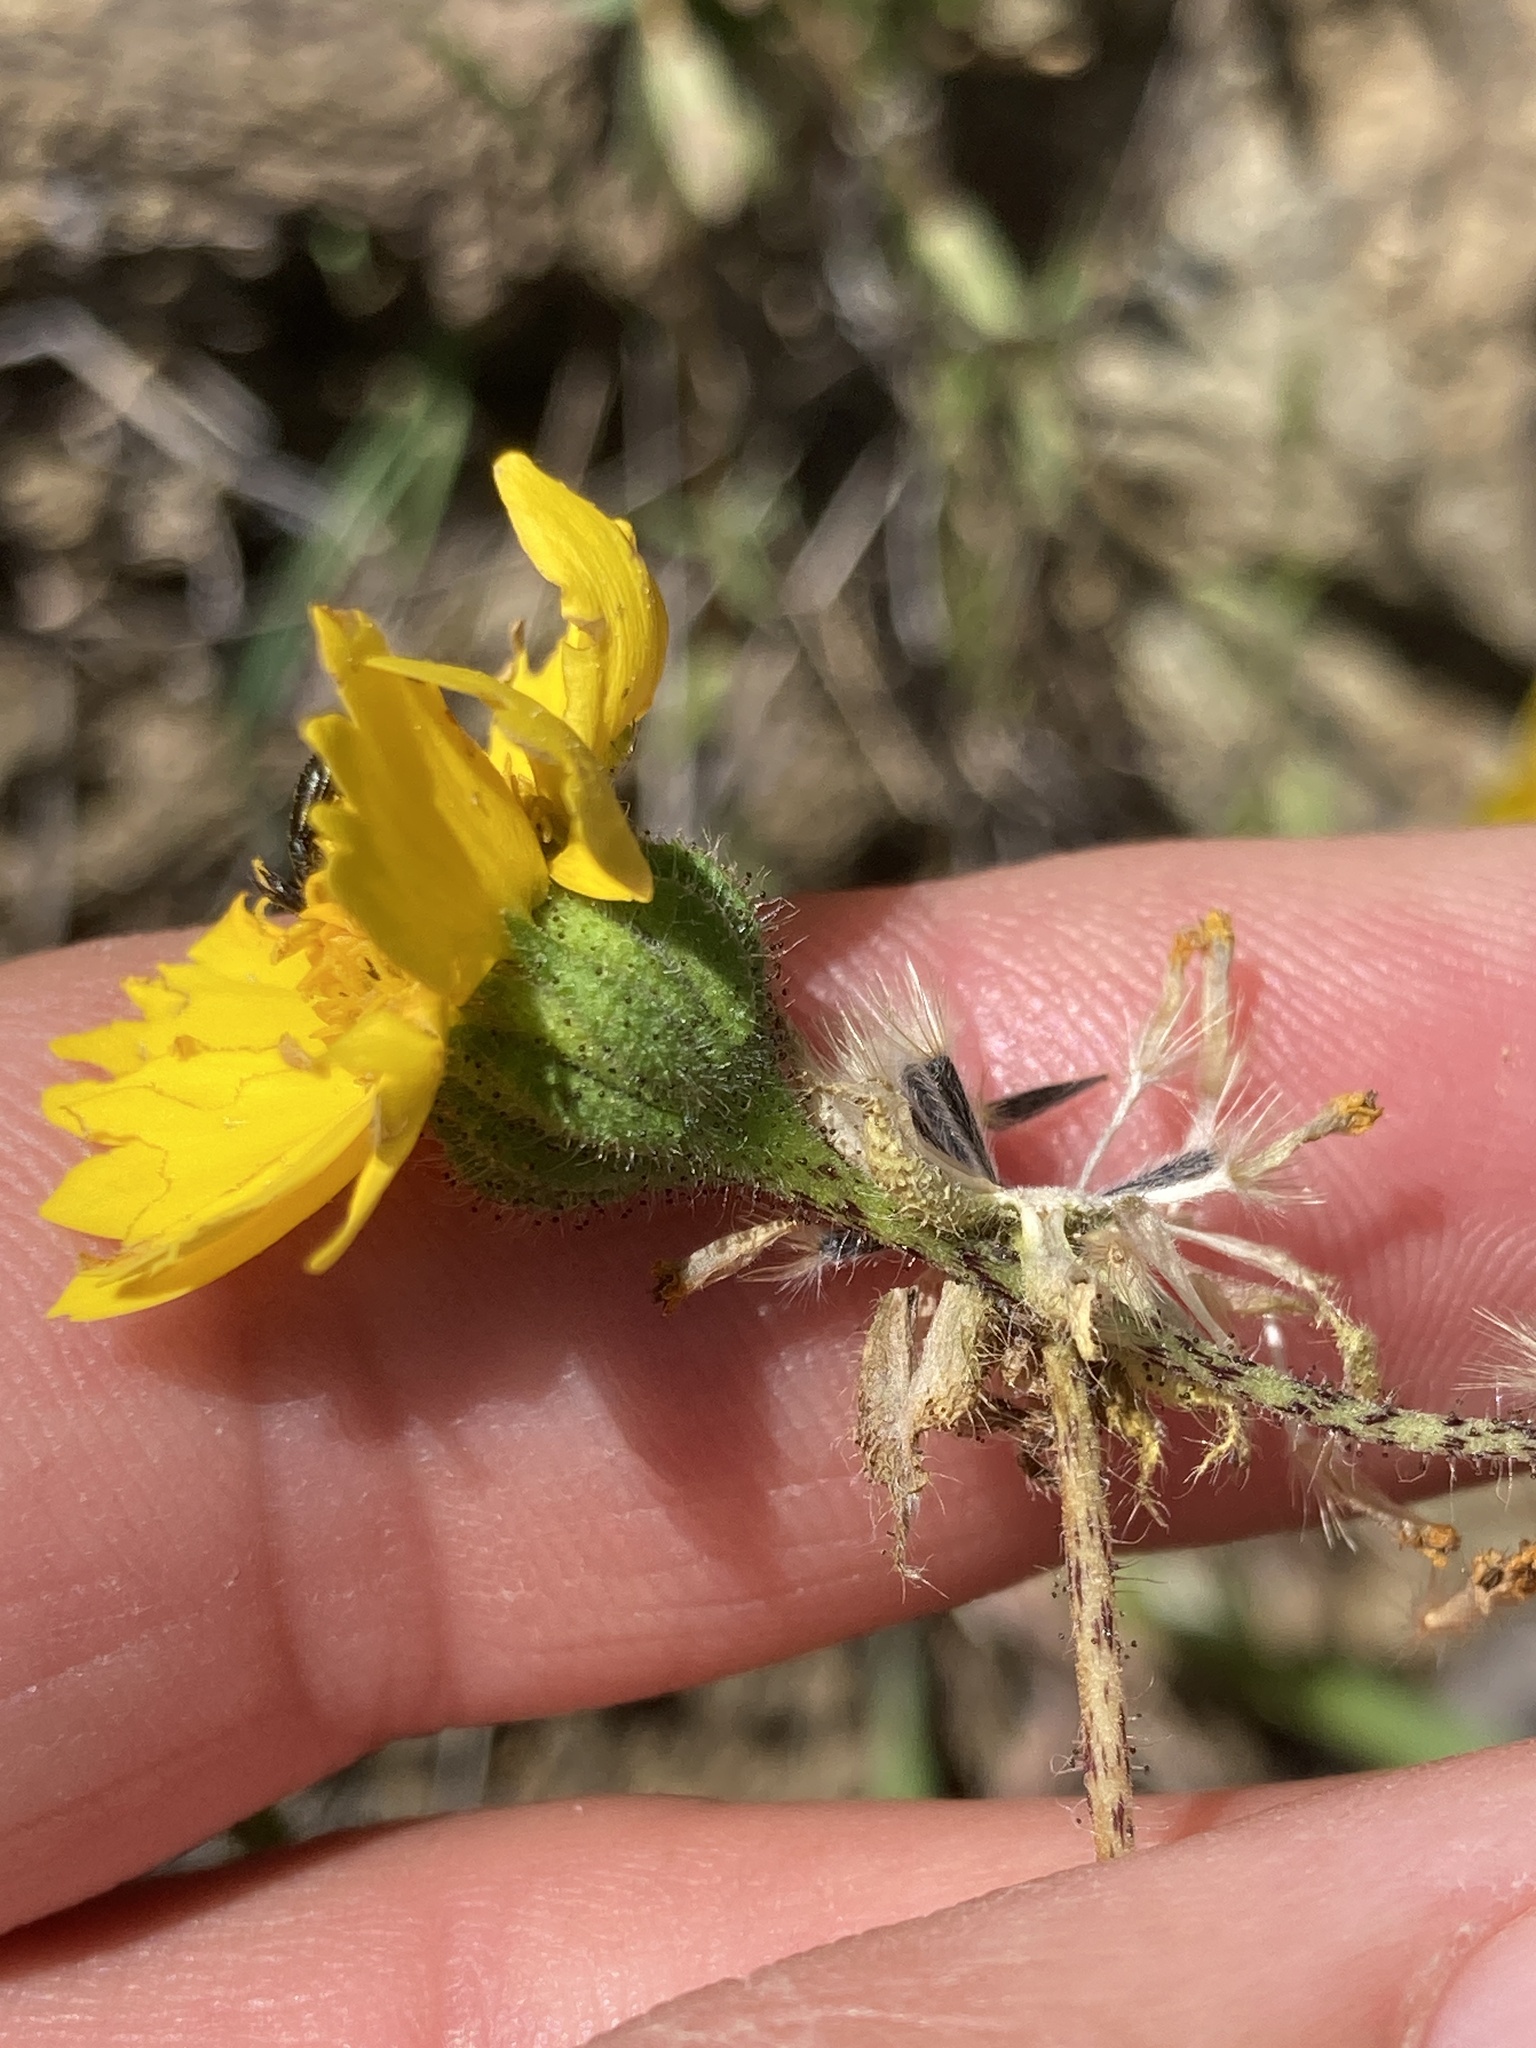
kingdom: Plantae
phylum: Tracheophyta
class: Magnoliopsida
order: Asterales
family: Asteraceae
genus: Layia
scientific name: Layia gaillardioides
